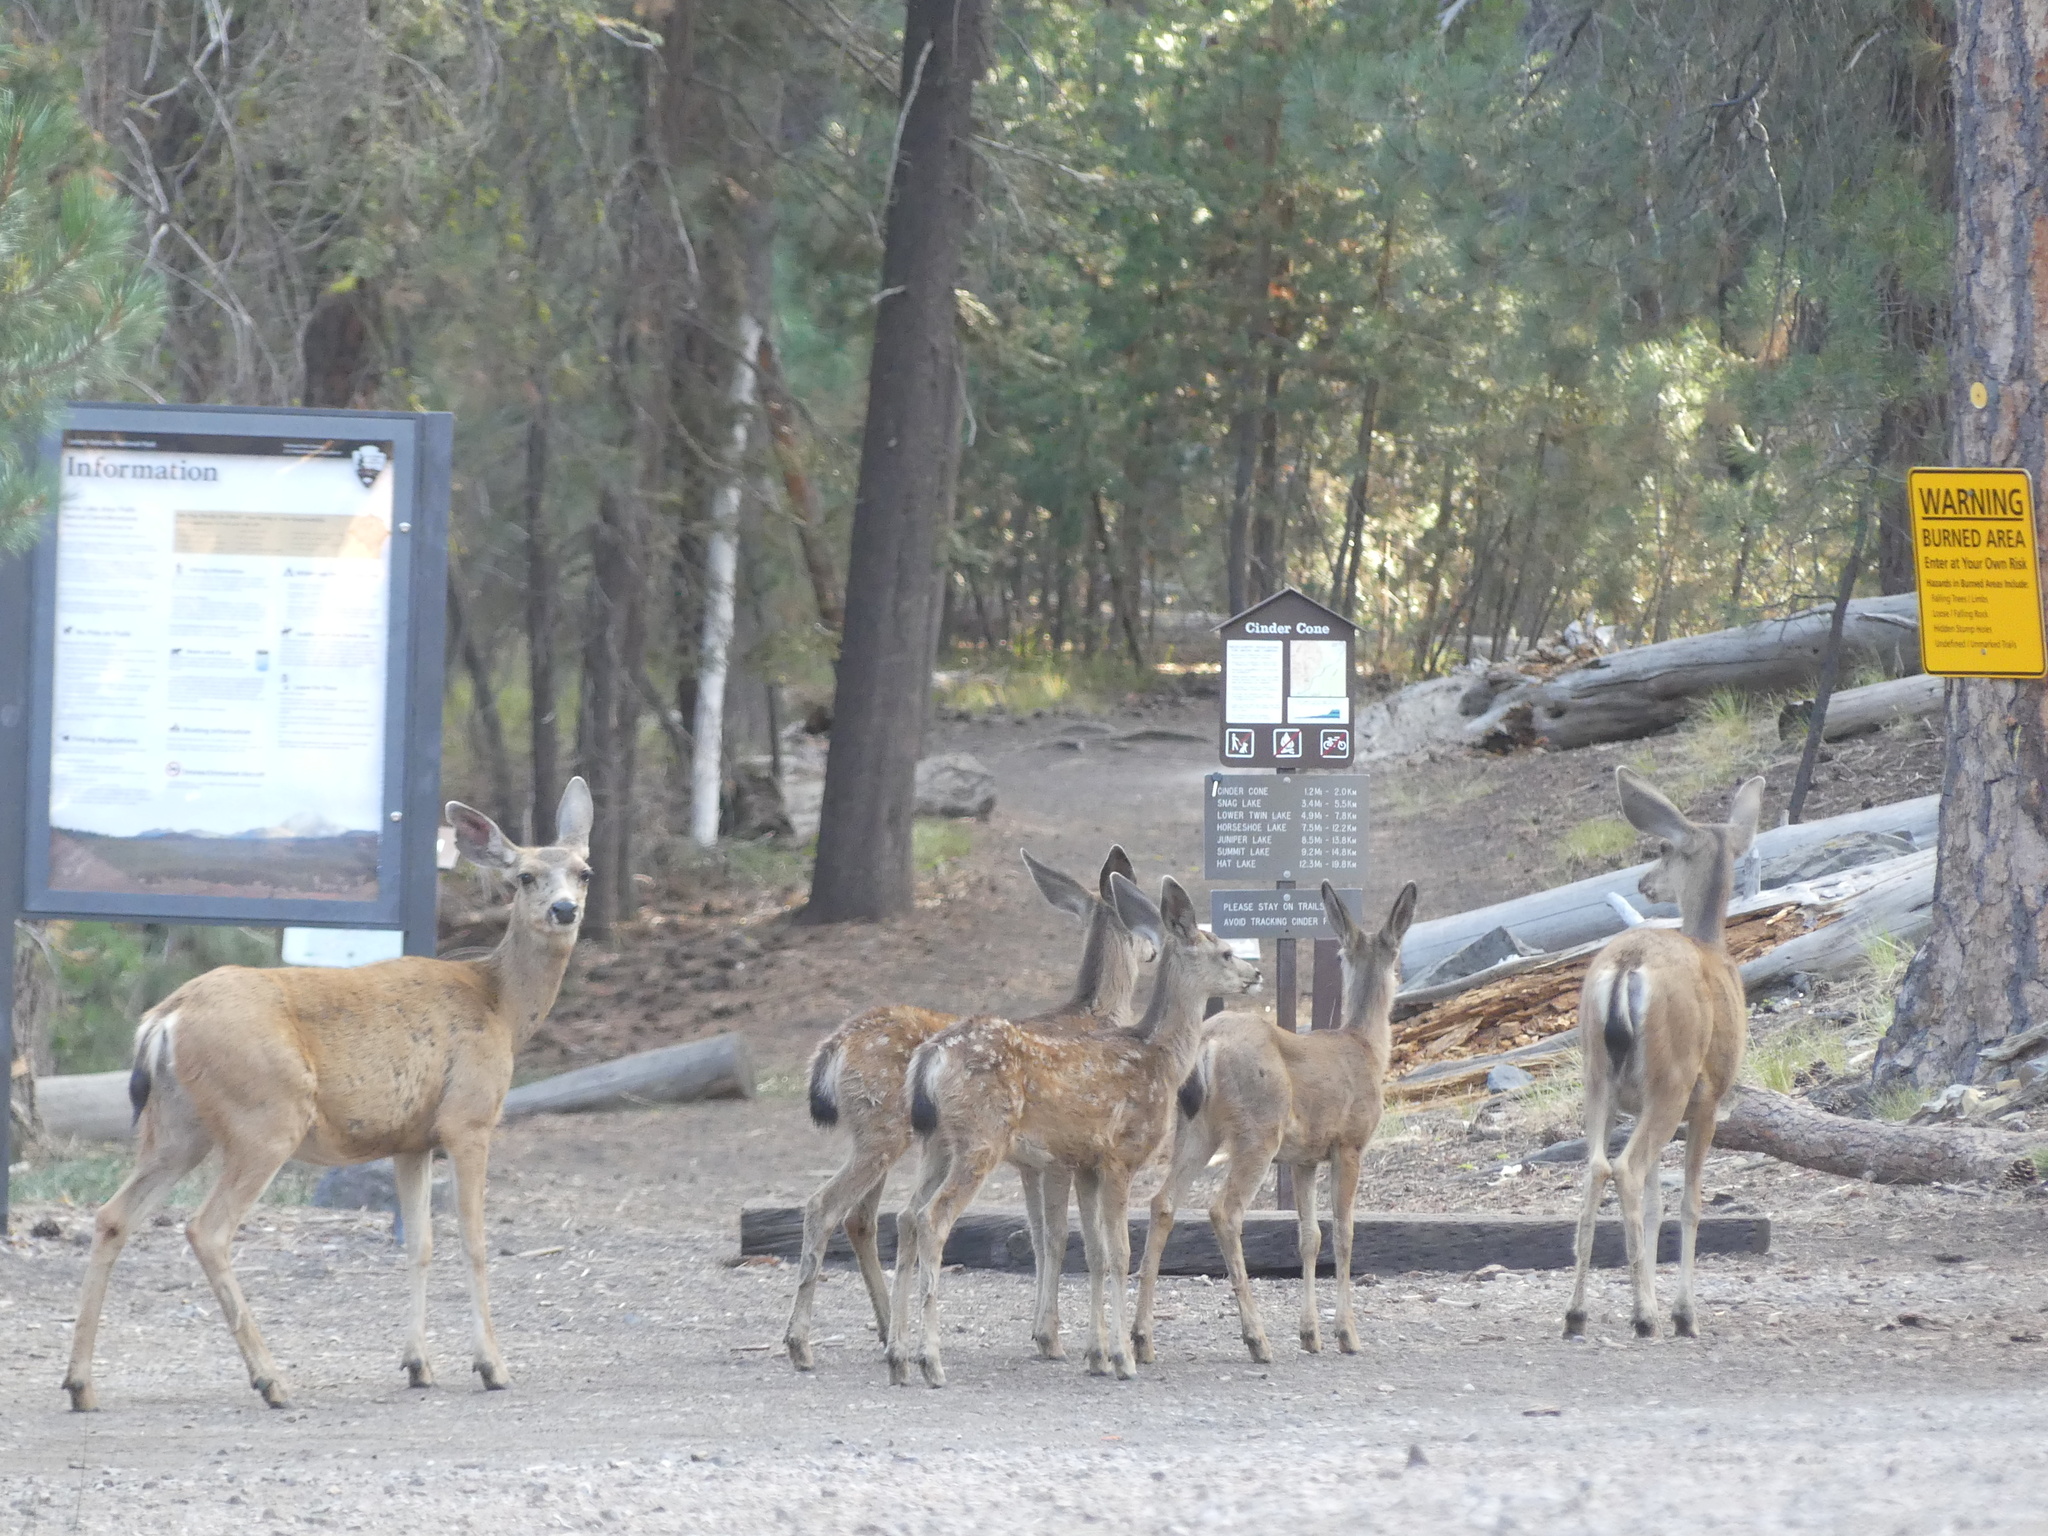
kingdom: Animalia
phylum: Chordata
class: Mammalia
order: Artiodactyla
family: Cervidae
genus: Odocoileus
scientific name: Odocoileus hemionus
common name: Mule deer
